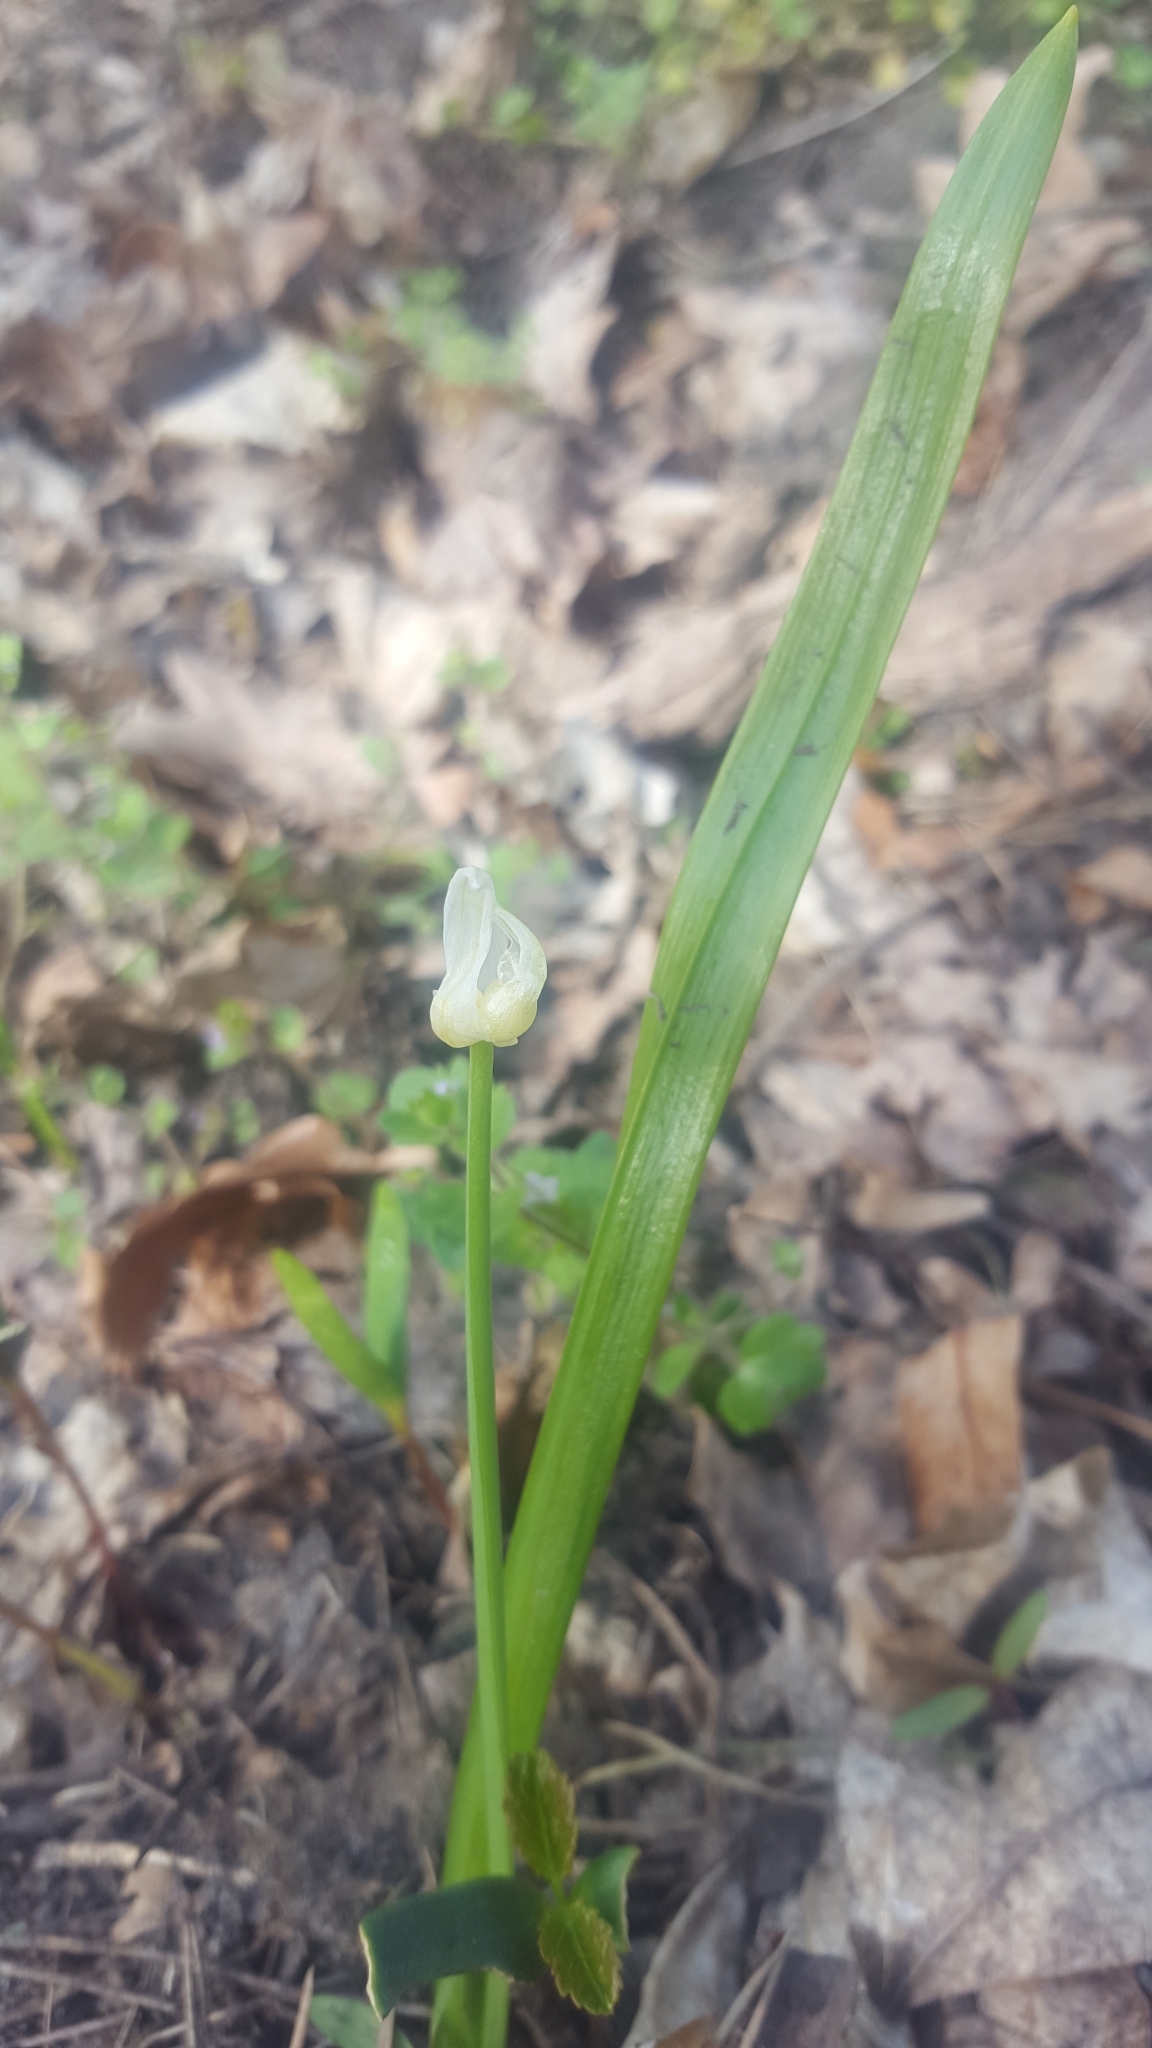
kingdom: Plantae
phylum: Tracheophyta
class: Liliopsida
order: Asparagales
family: Amaryllidaceae
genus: Allium
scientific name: Allium paradoxum
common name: Few-flowered garlic
